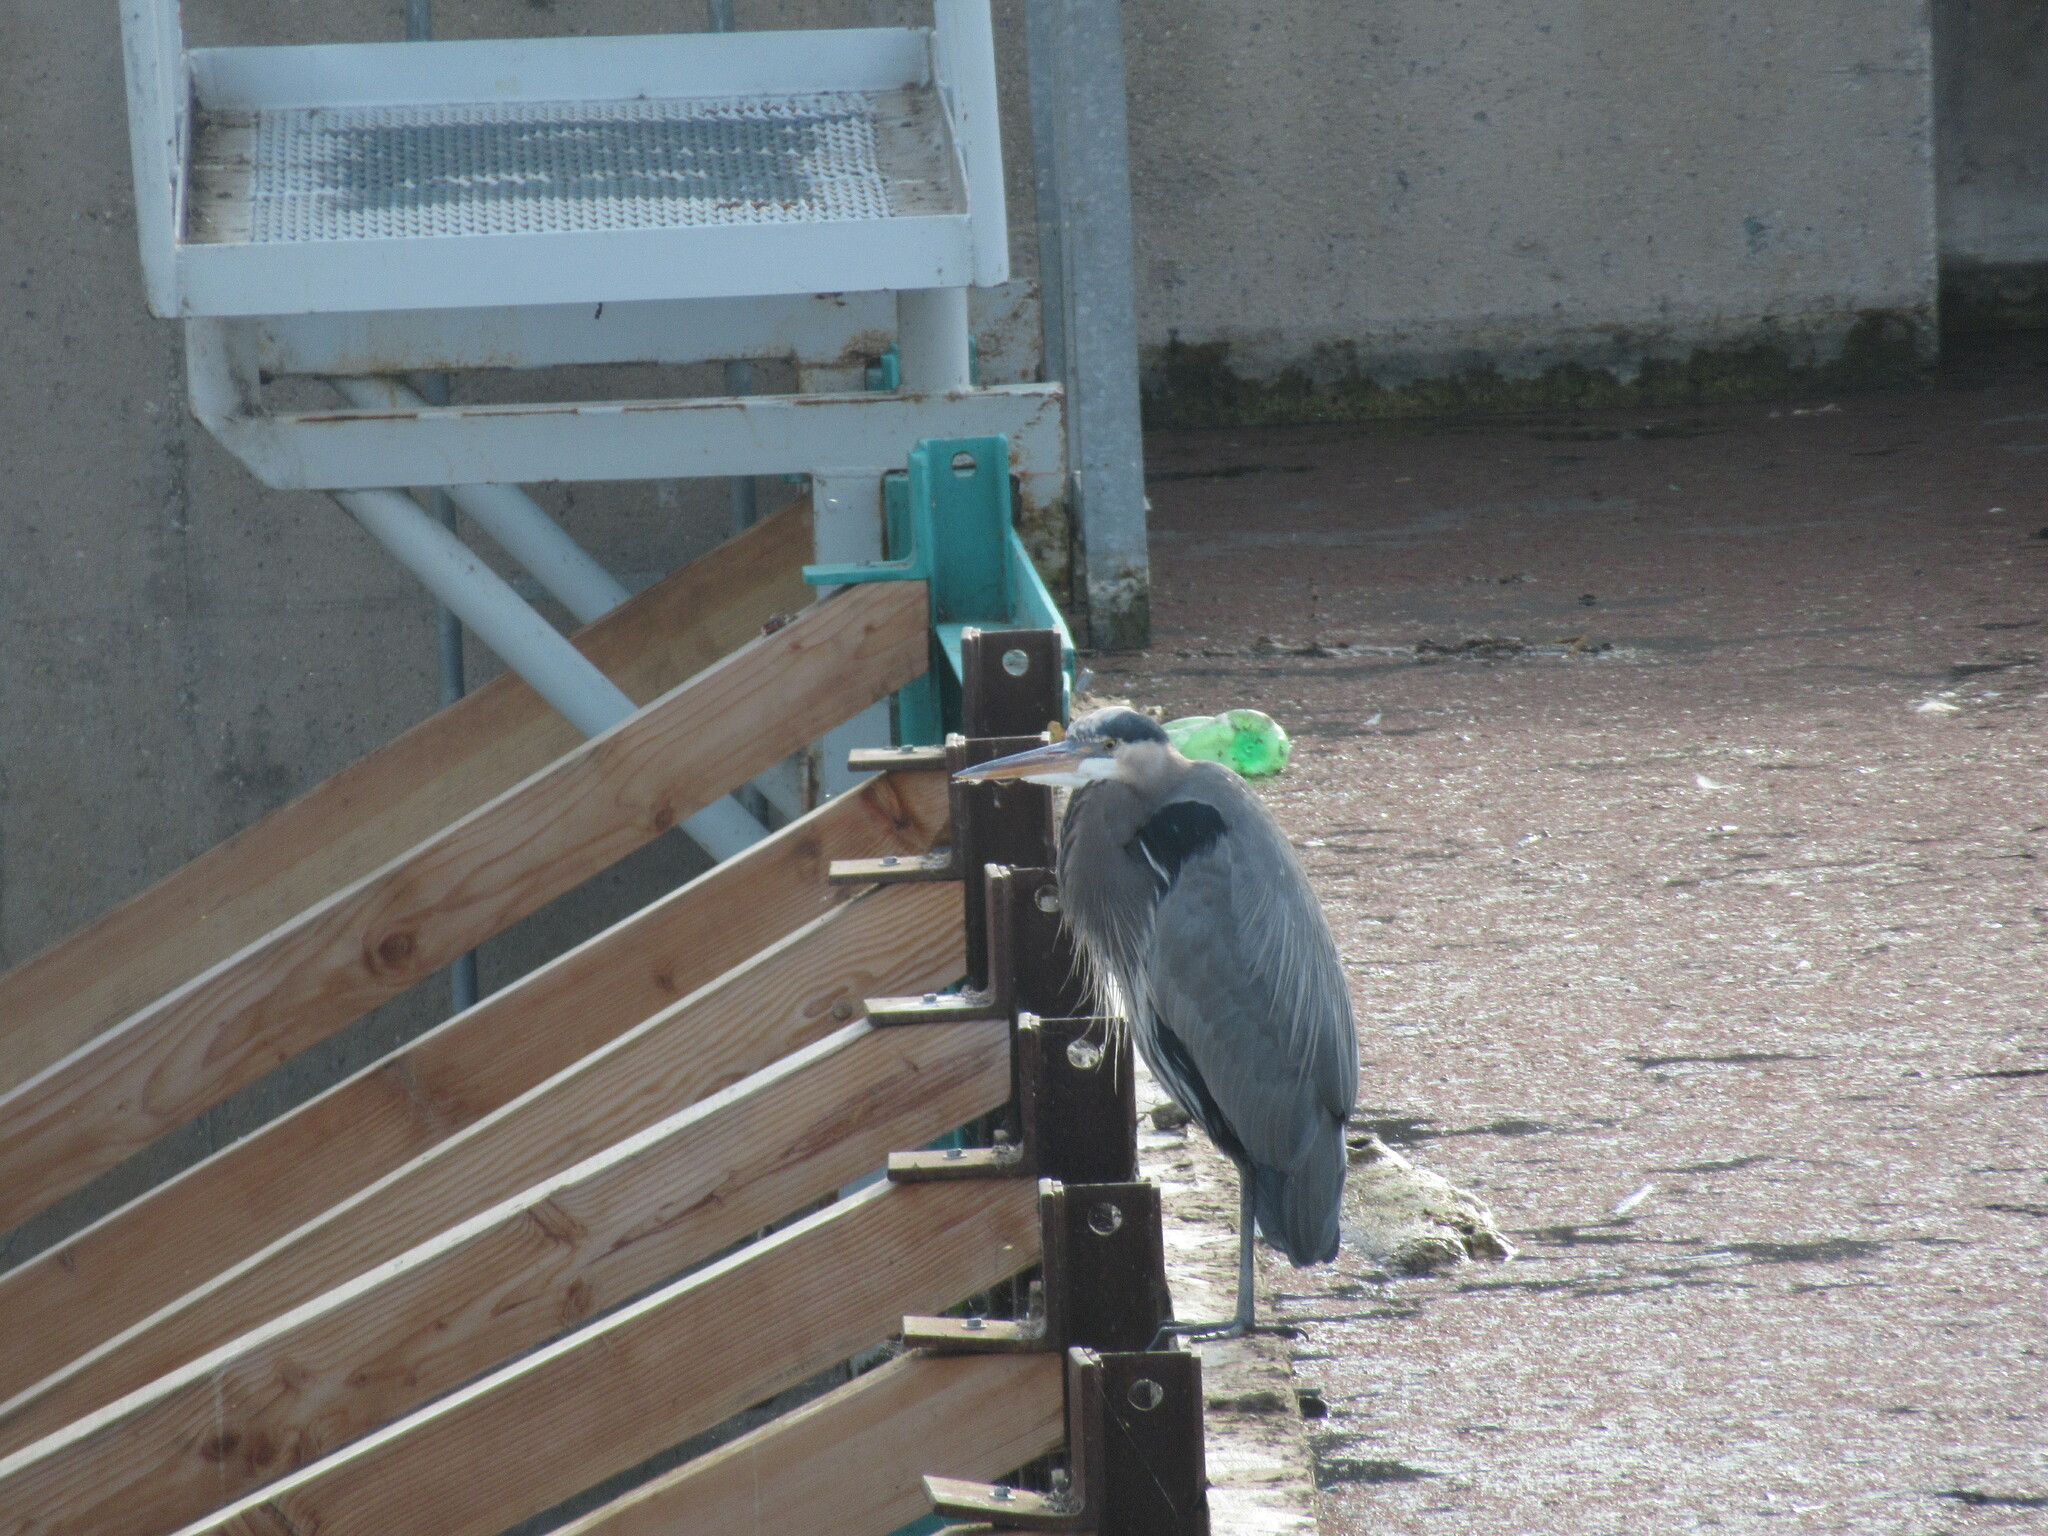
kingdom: Animalia
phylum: Chordata
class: Aves
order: Pelecaniformes
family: Ardeidae
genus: Ardea
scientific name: Ardea herodias
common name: Great blue heron
